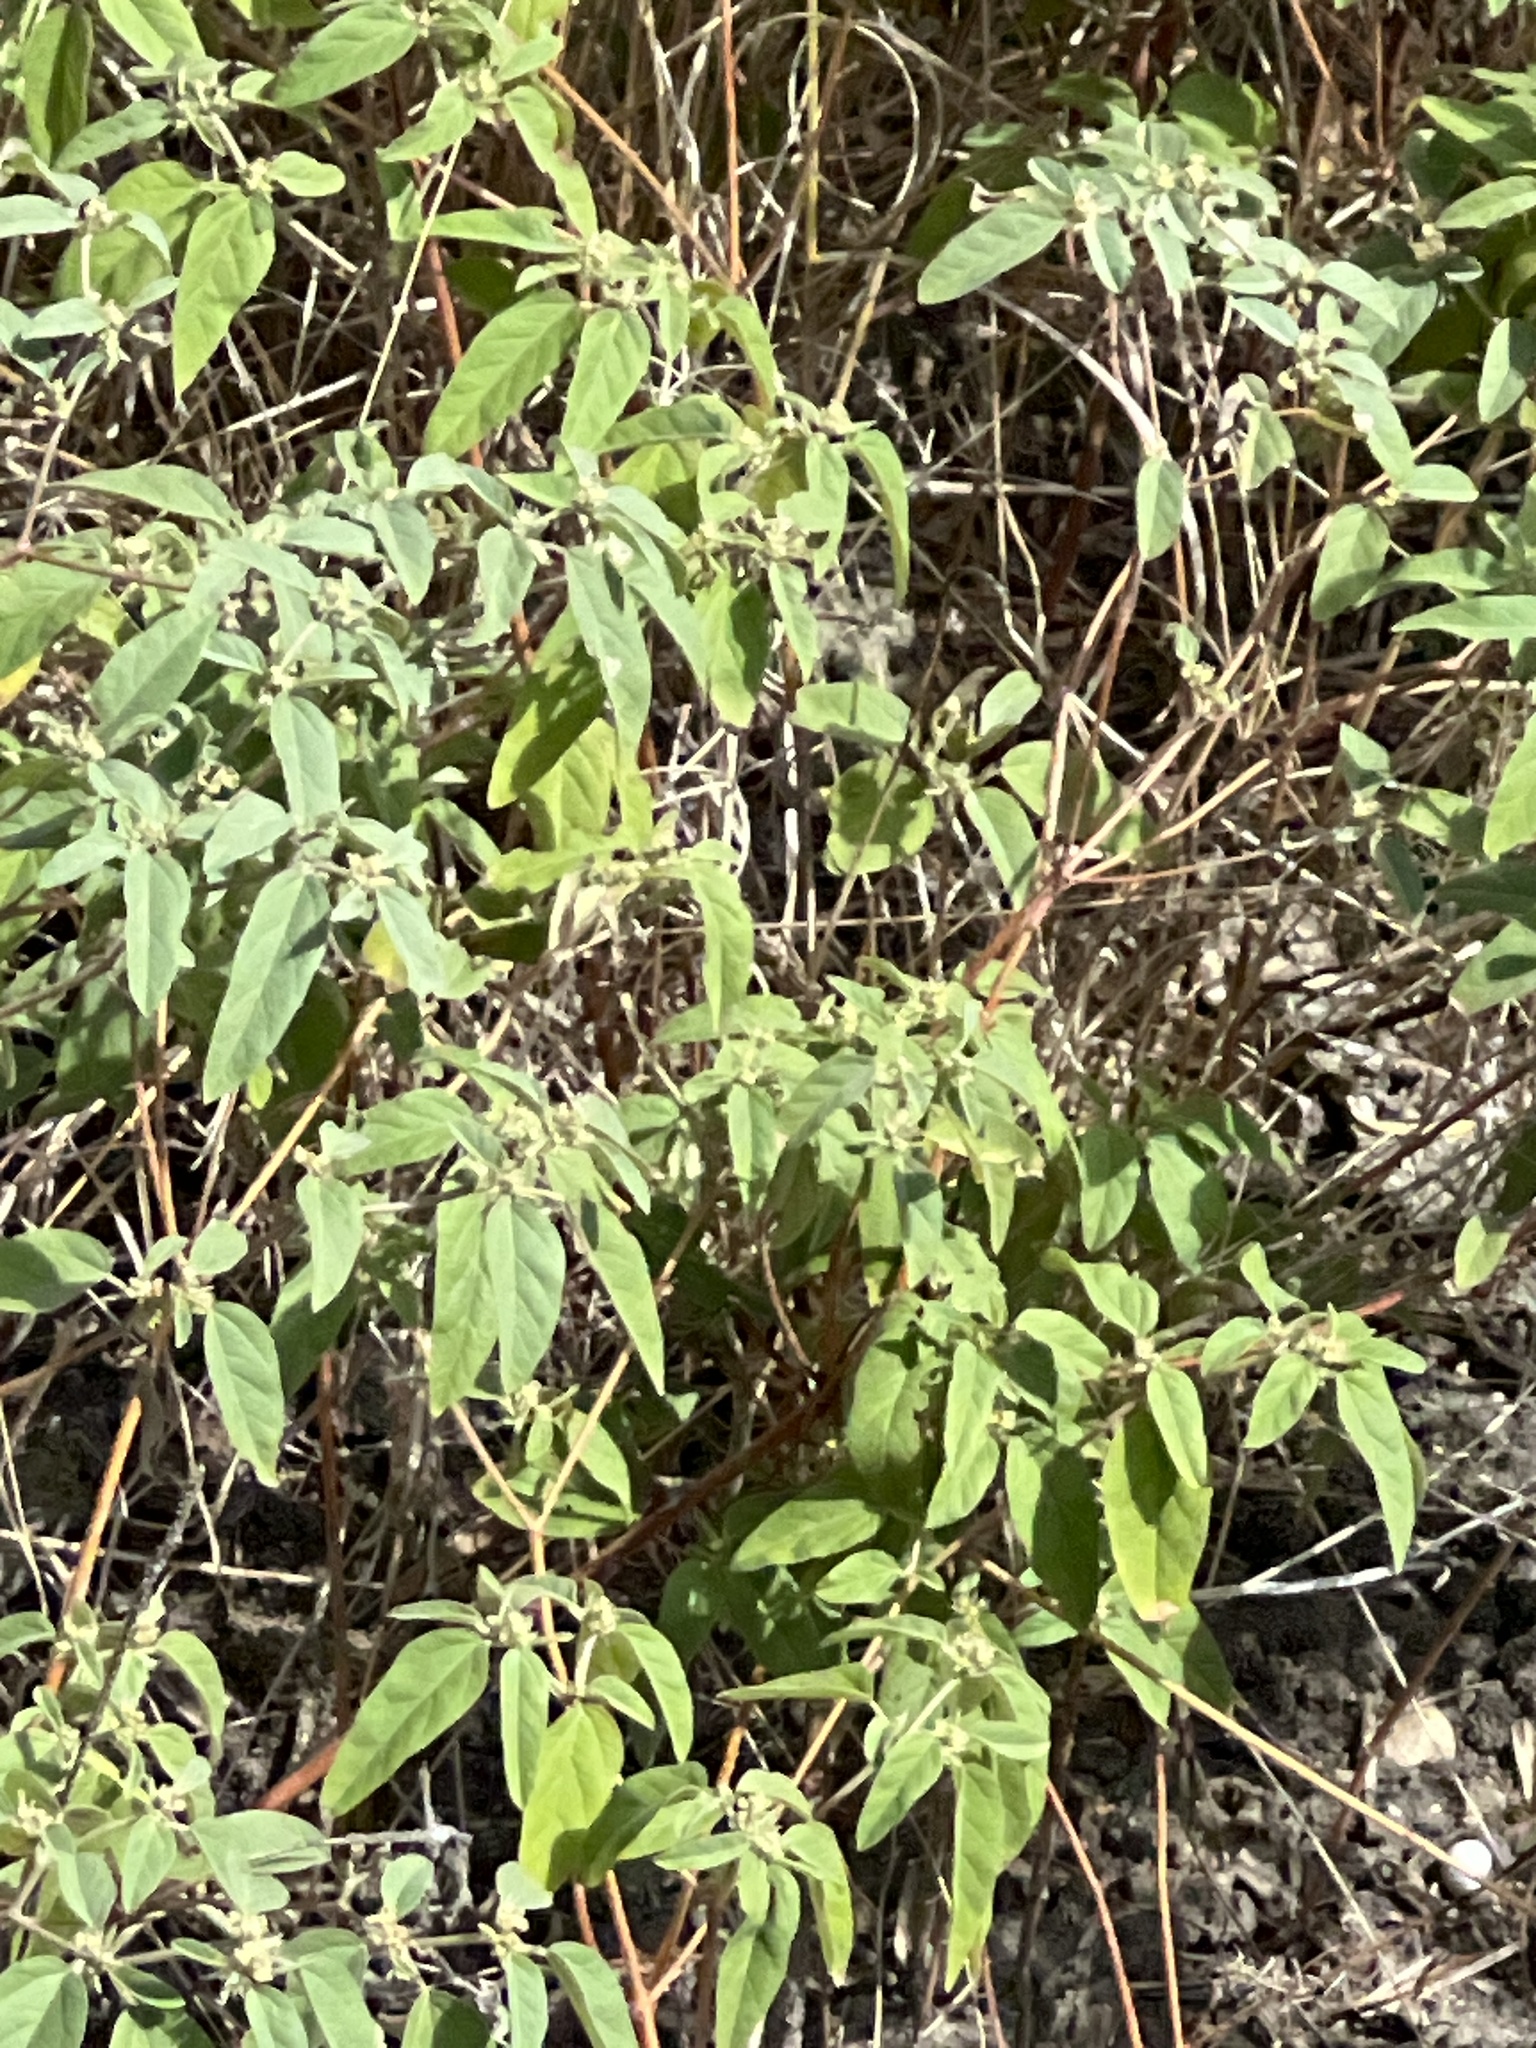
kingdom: Plantae
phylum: Tracheophyta
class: Magnoliopsida
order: Malpighiales
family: Euphorbiaceae
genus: Croton
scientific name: Croton monanthogynus
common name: One-seed croton
